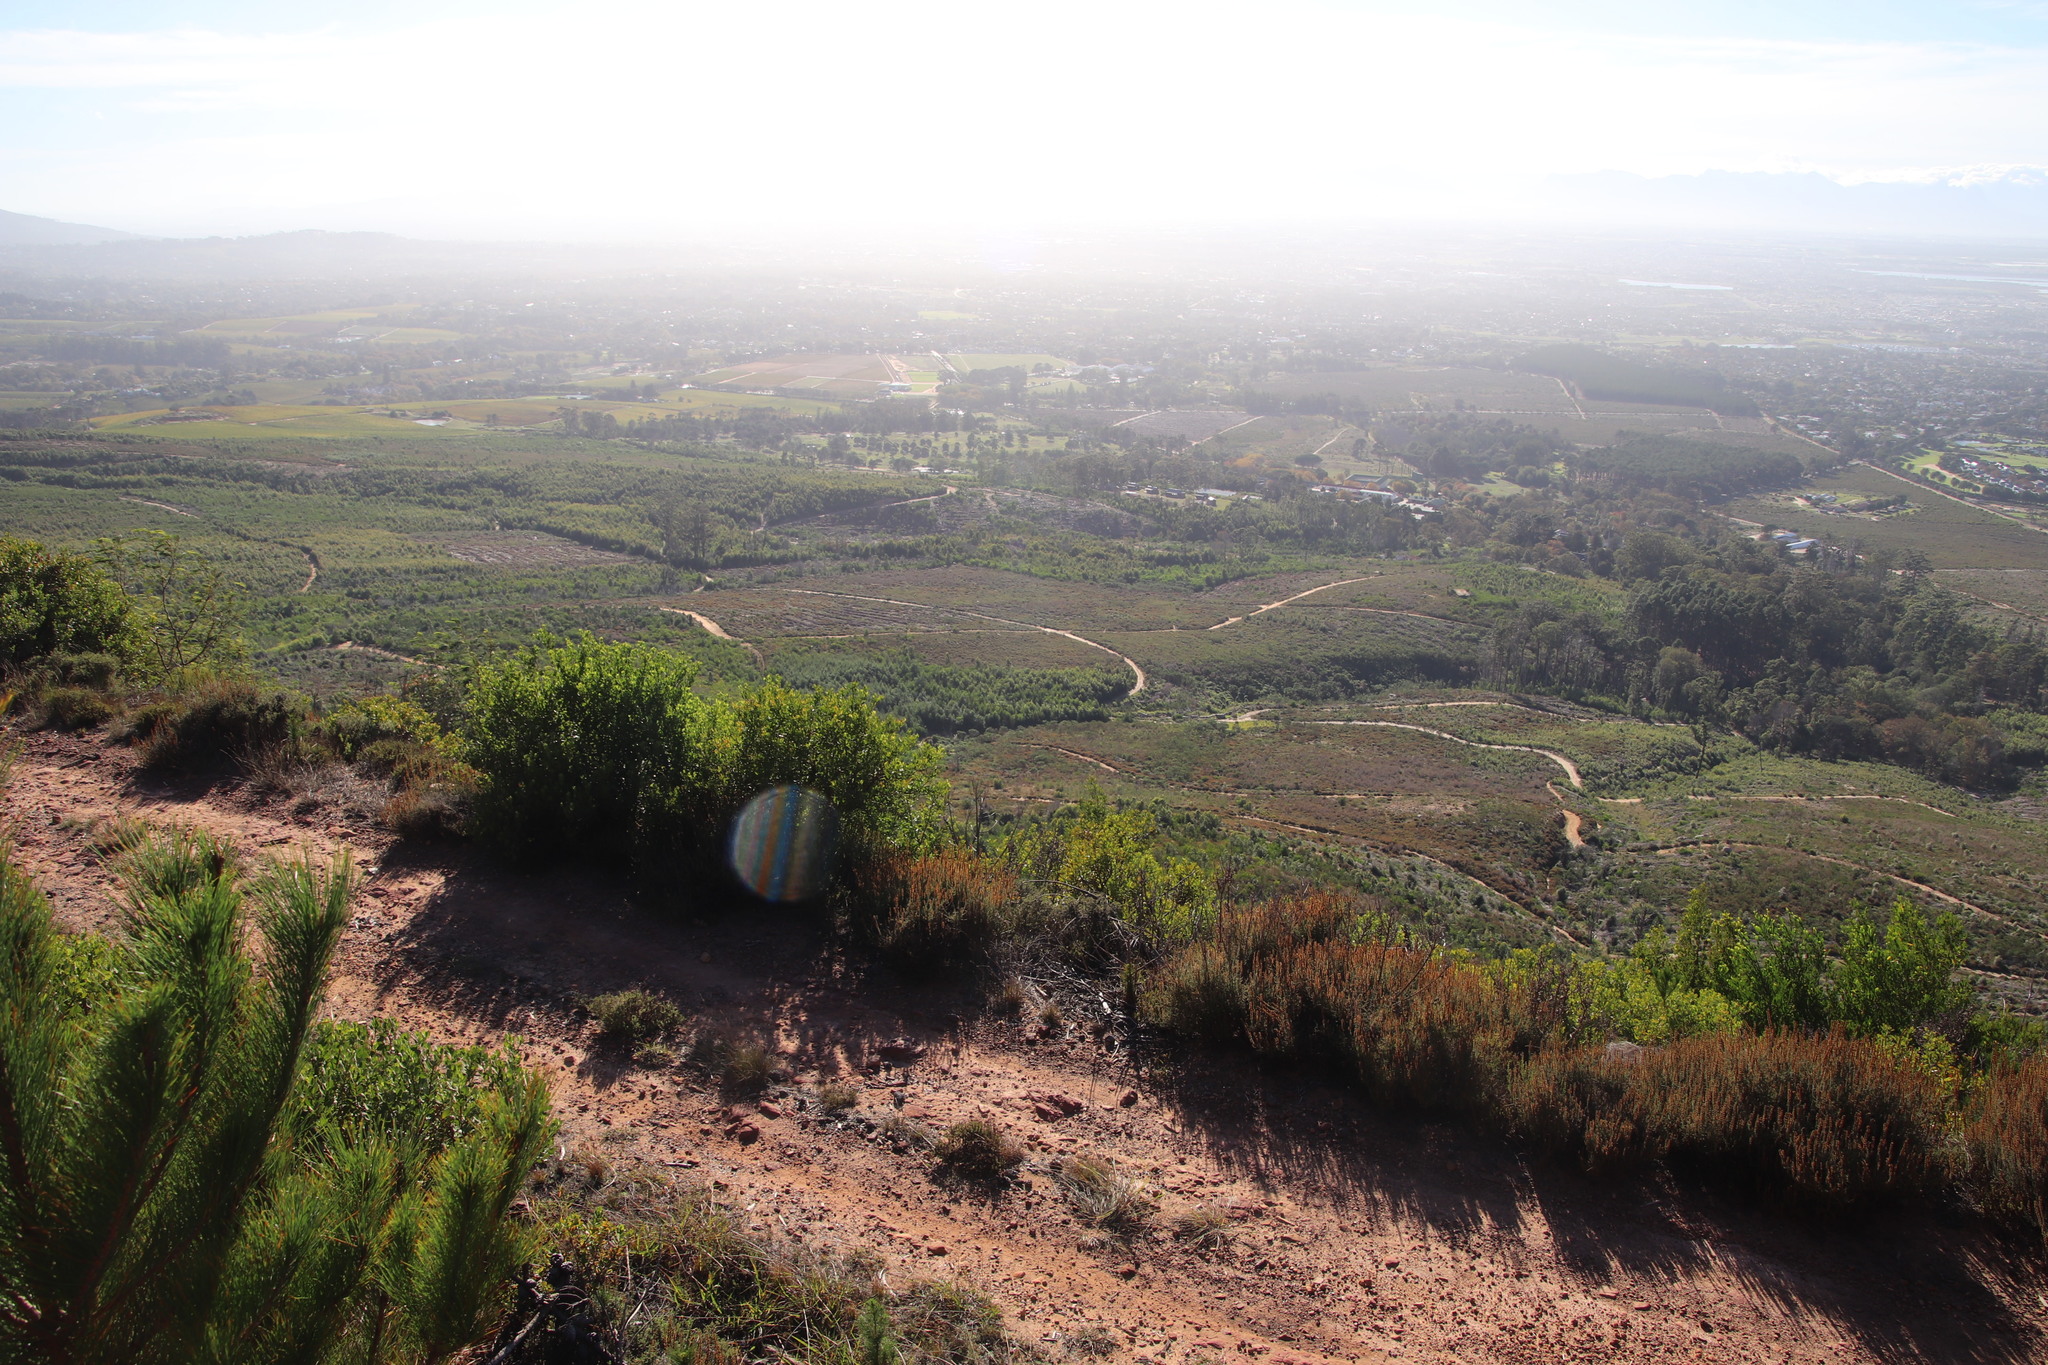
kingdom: Plantae
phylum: Tracheophyta
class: Magnoliopsida
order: Asterales
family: Asteraceae
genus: Seriphium
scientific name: Seriphium cinereum
